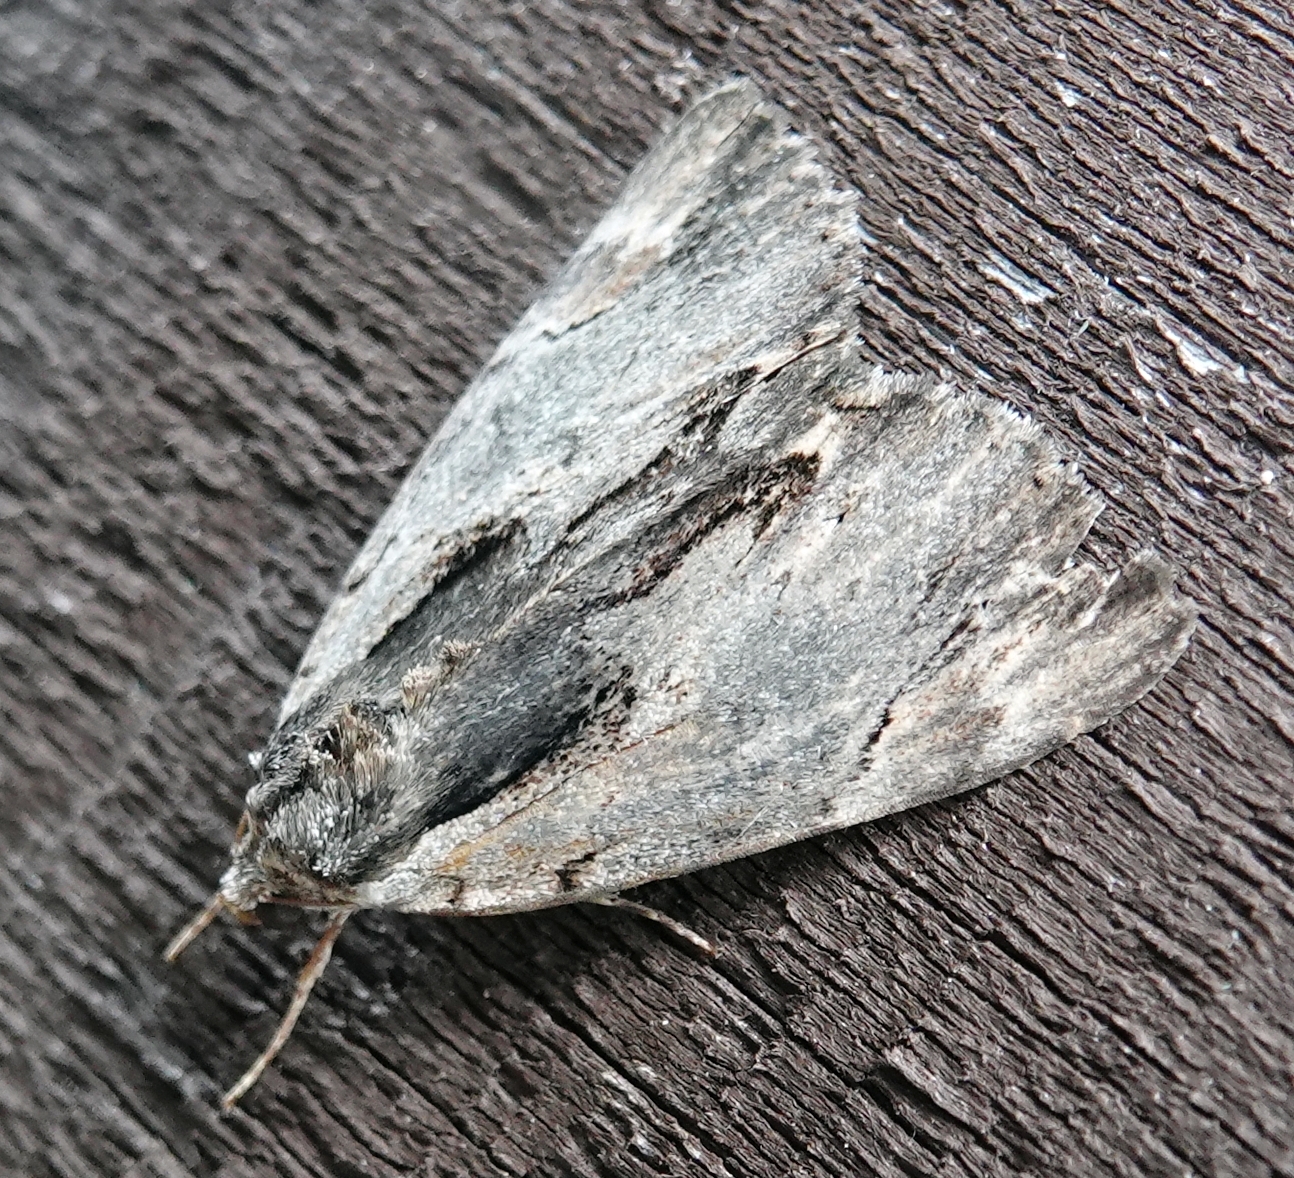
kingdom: Animalia
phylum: Arthropoda
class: Insecta
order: Lepidoptera
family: Erebidae
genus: Catocala
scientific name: Catocala ultronia
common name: Ultronia underwing
